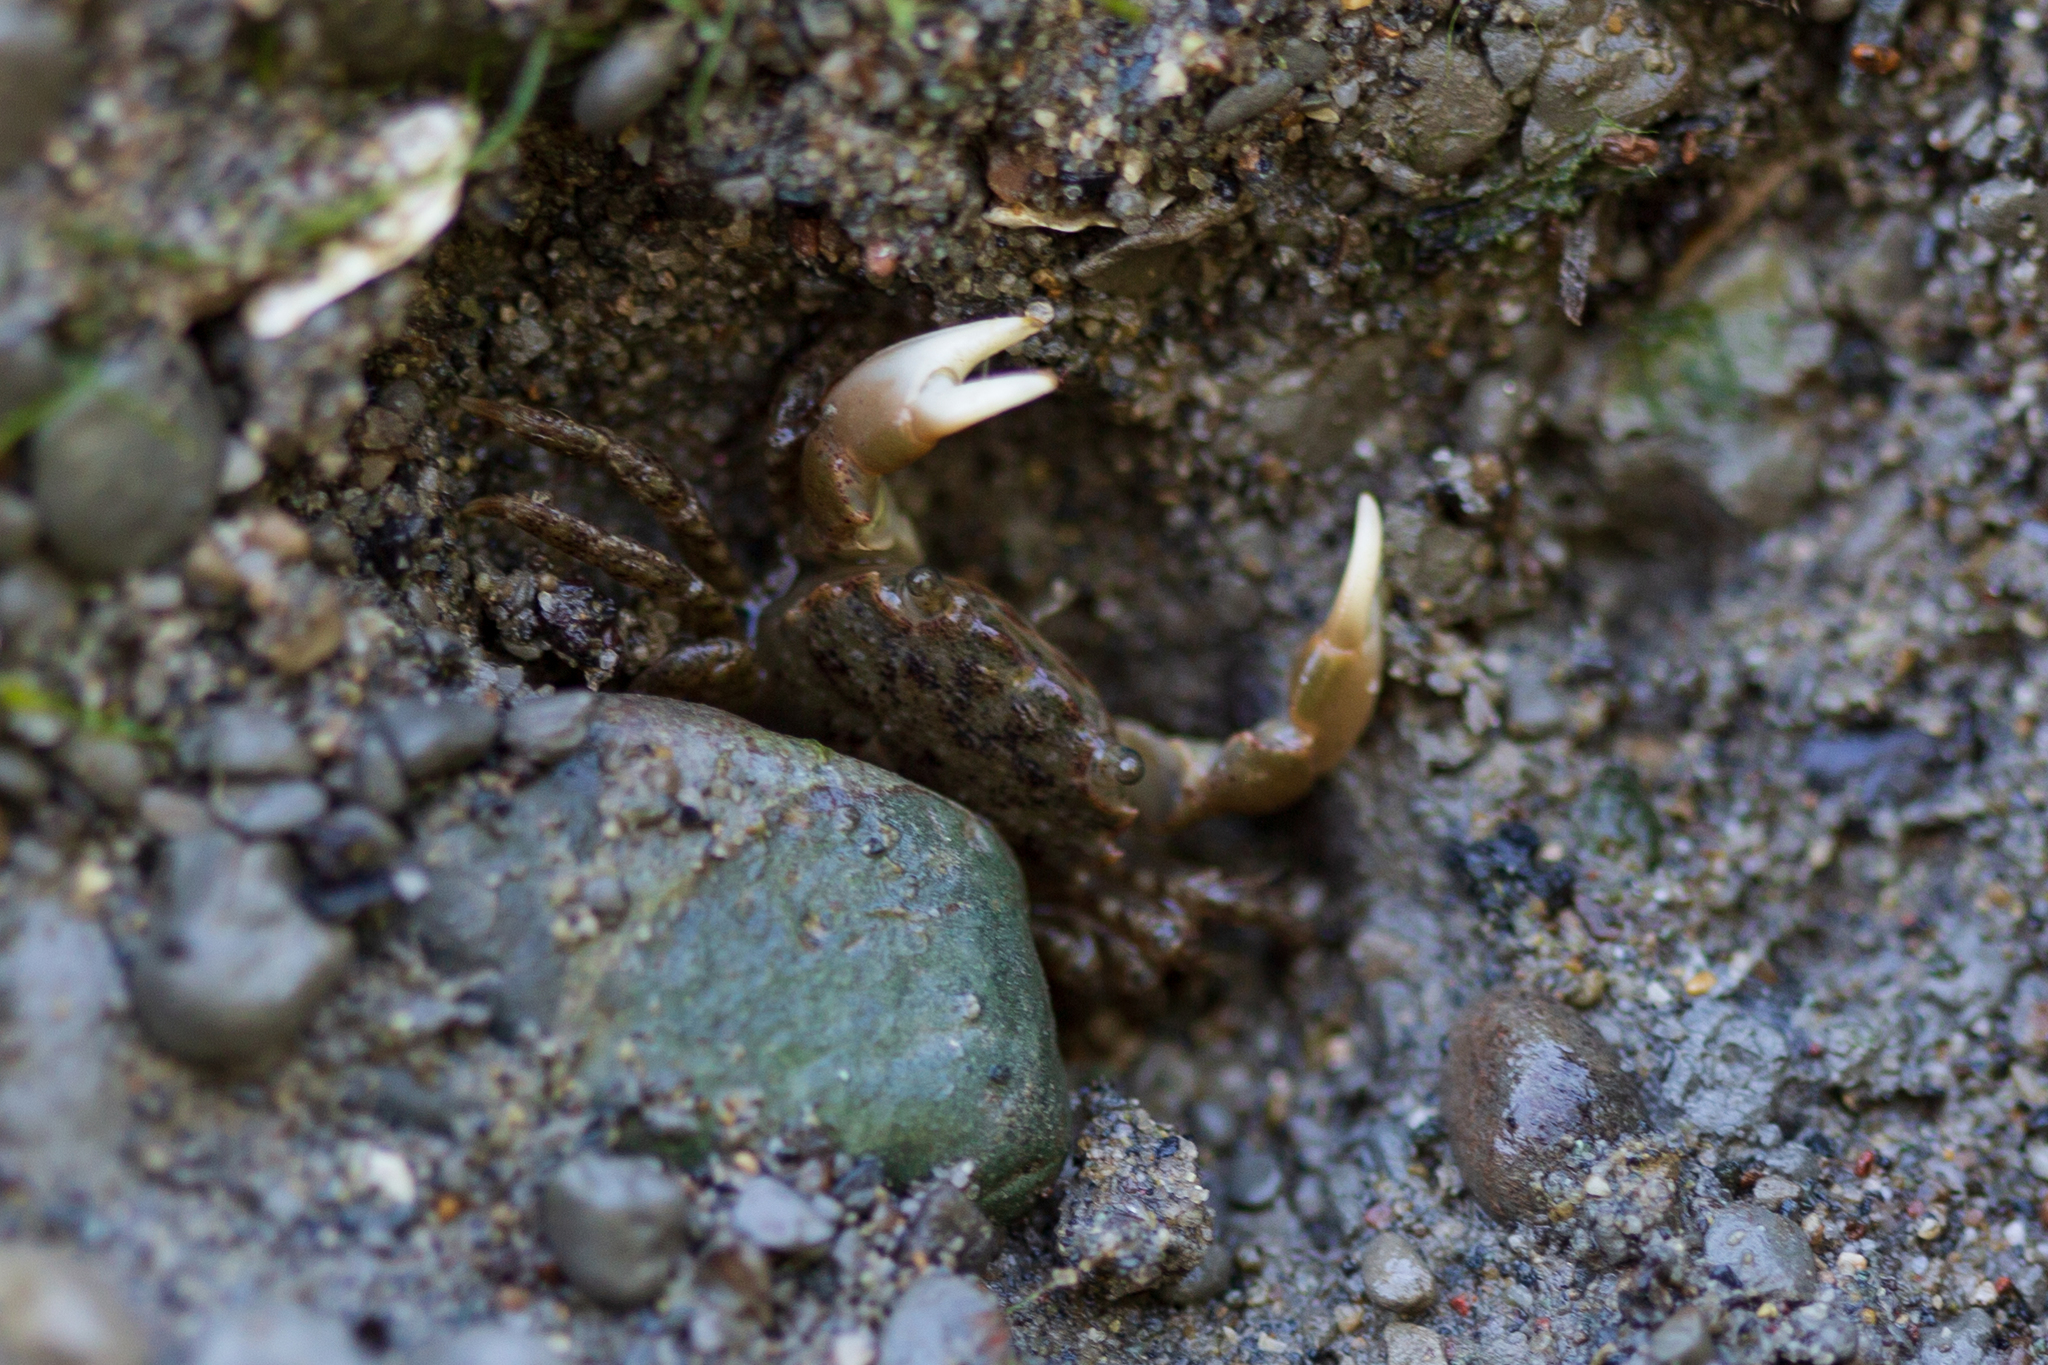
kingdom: Animalia
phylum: Arthropoda
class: Malacostraca
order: Decapoda
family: Varunidae
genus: Hemigrapsus
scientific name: Hemigrapsus oregonensis
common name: Yellow shore crab
